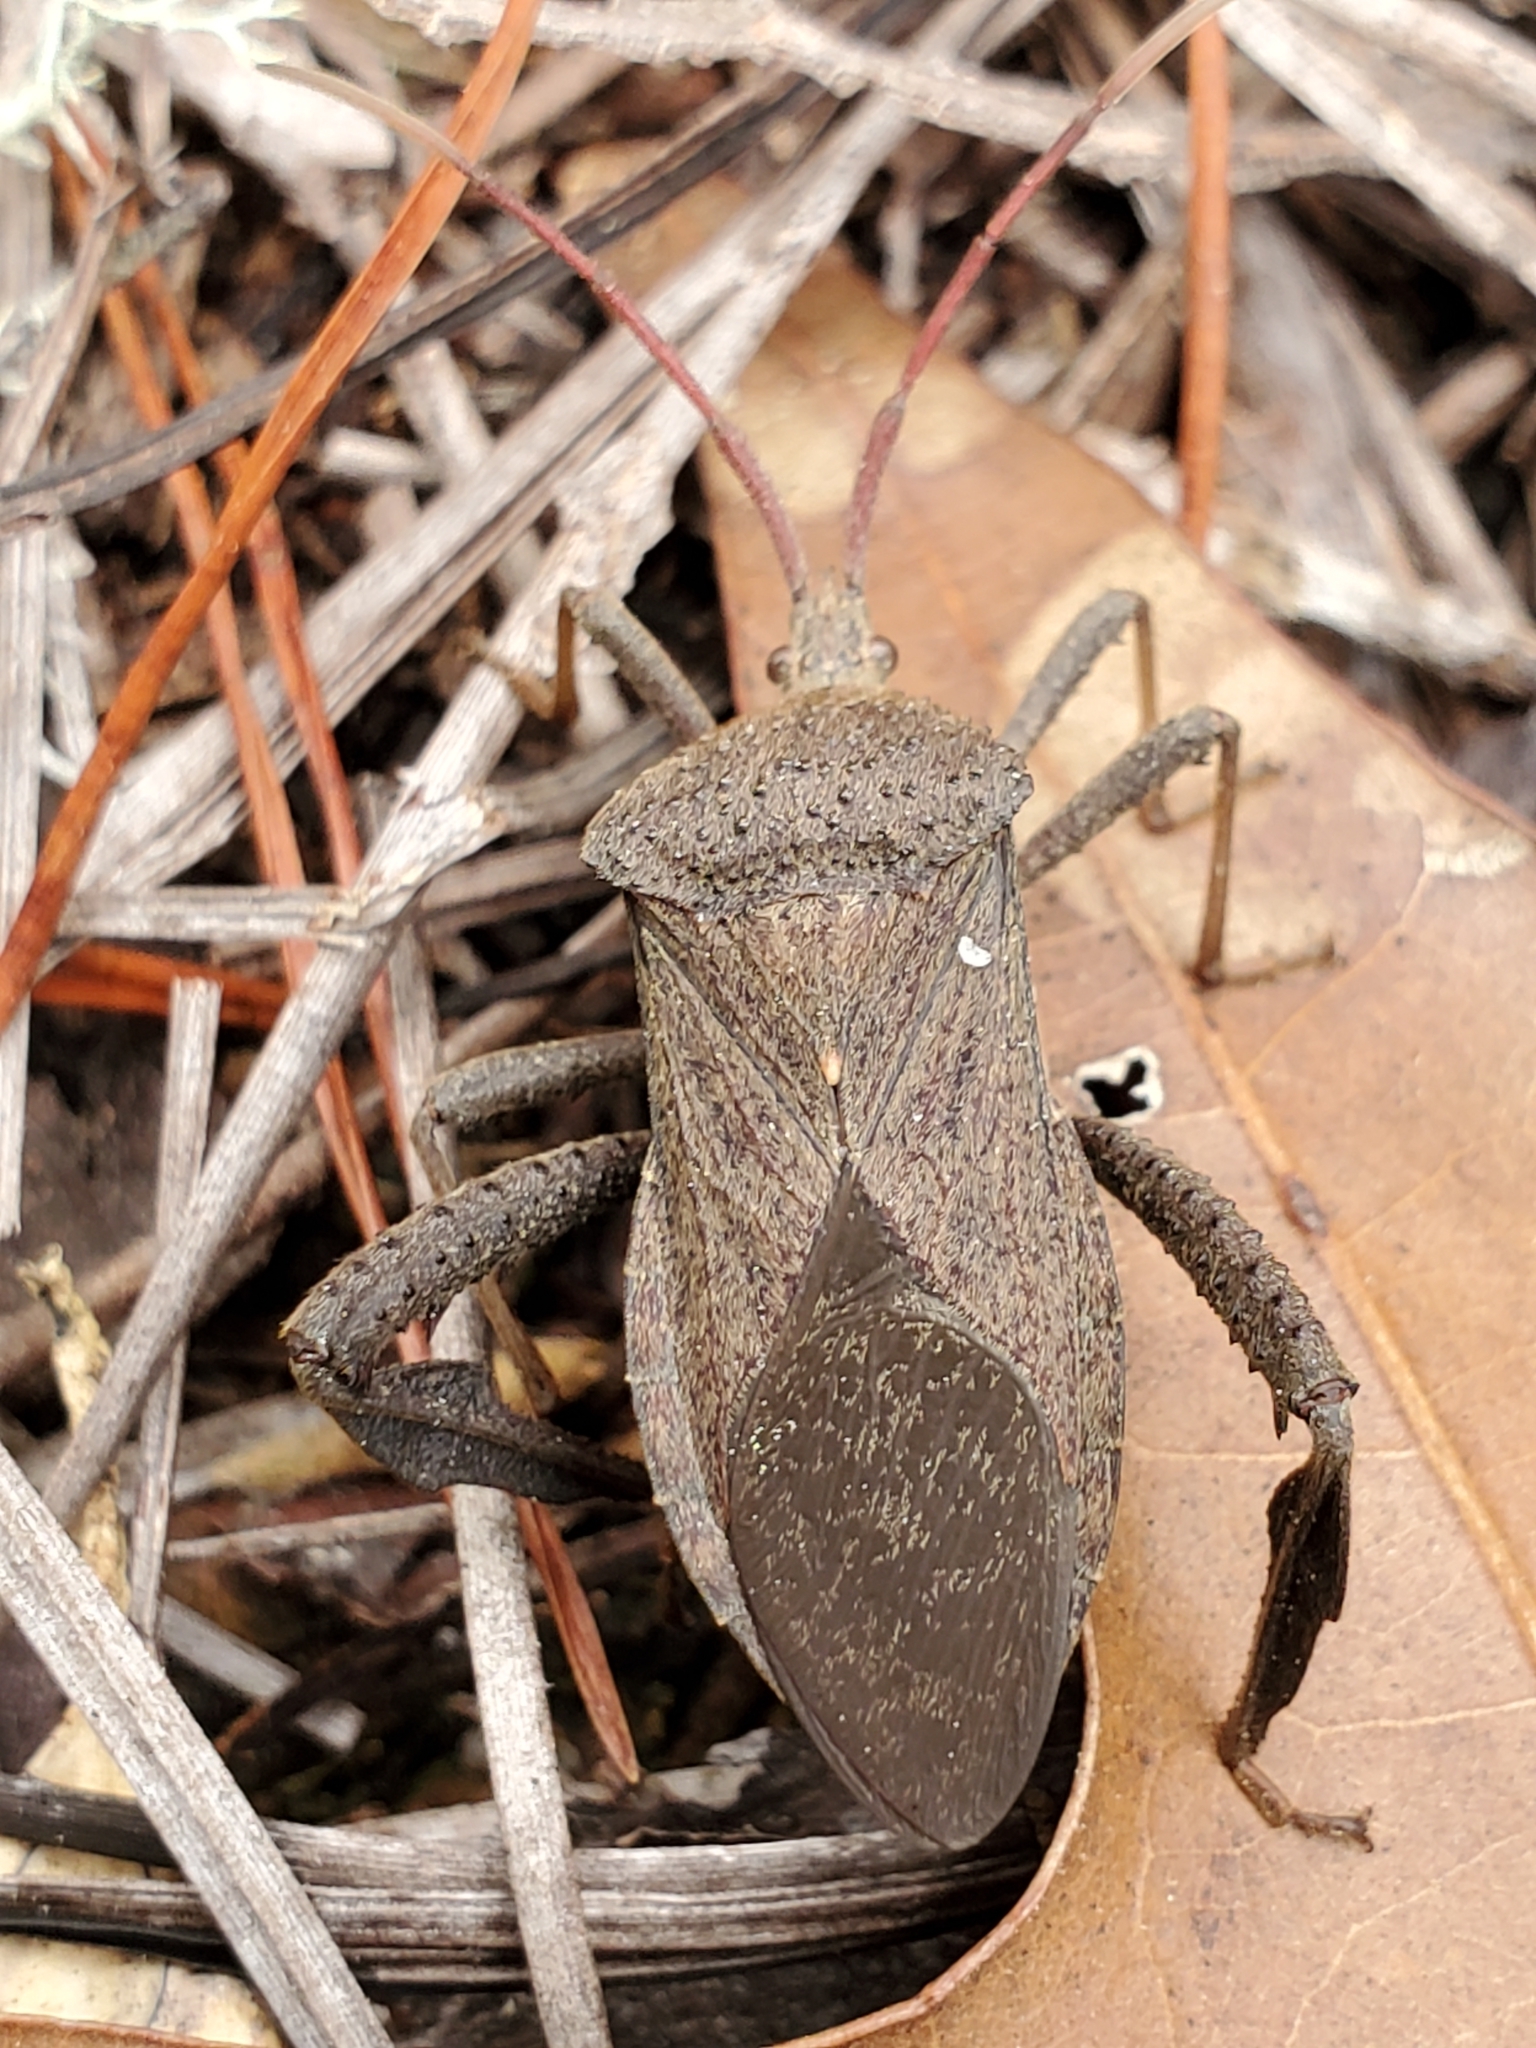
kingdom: Animalia
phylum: Arthropoda
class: Insecta
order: Hemiptera
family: Coreidae
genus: Acanthocephala
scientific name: Acanthocephala femorata
